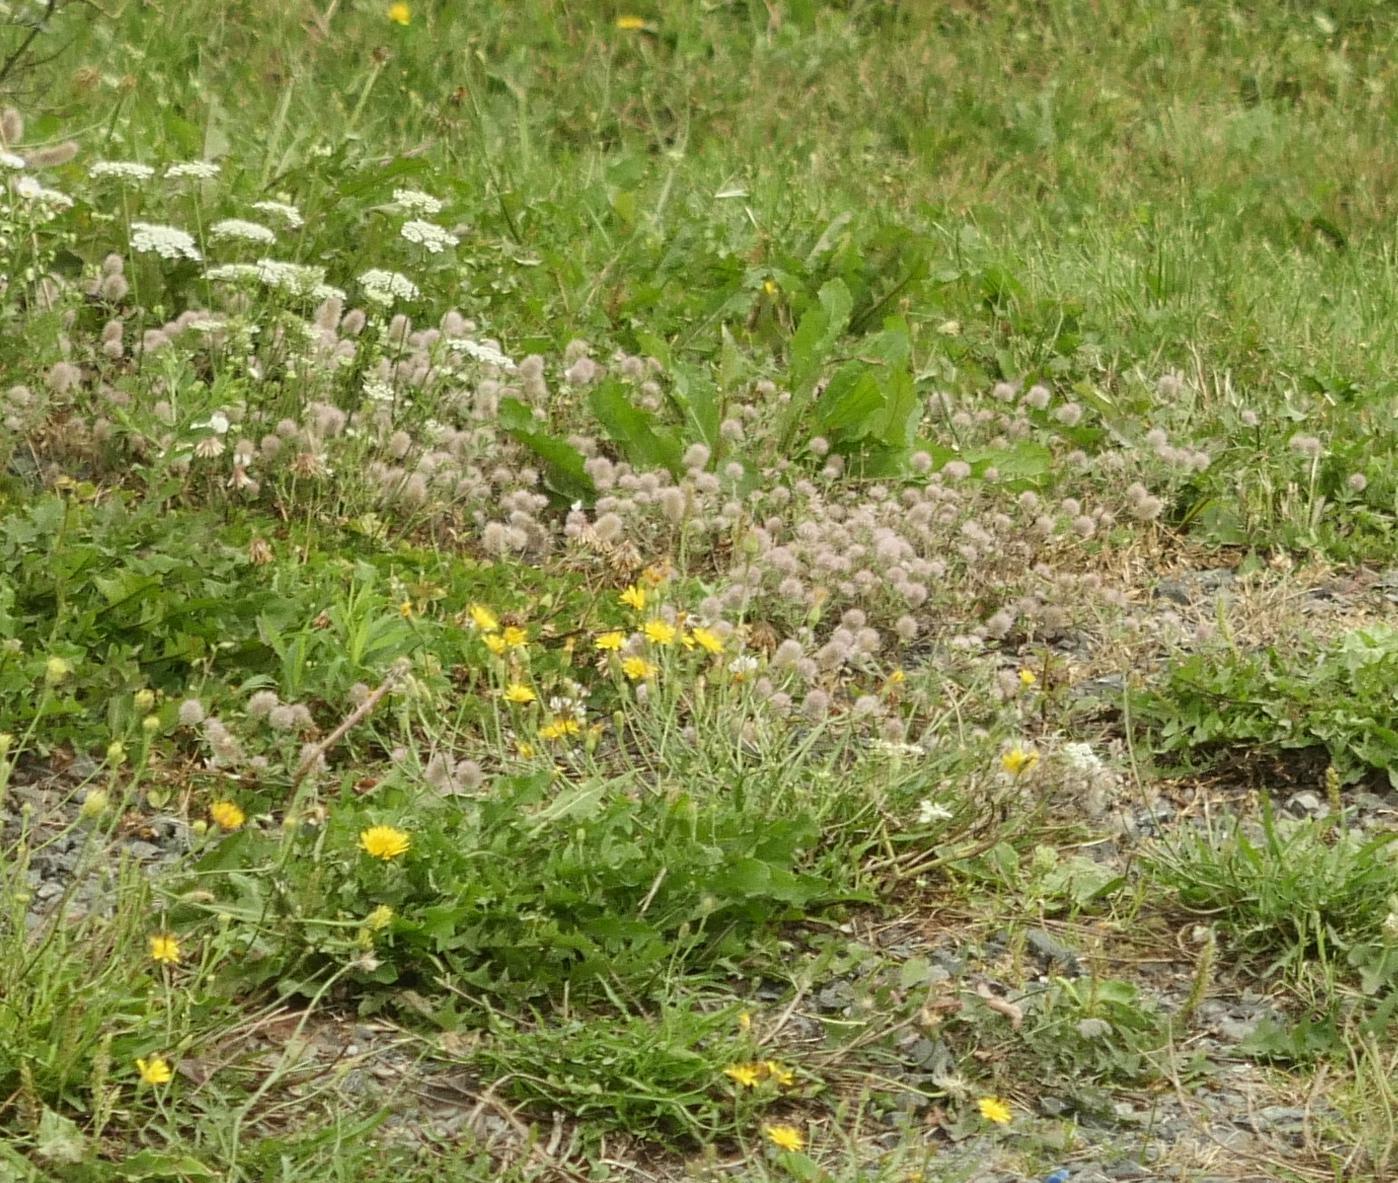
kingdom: Plantae
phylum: Tracheophyta
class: Magnoliopsida
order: Fabales
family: Fabaceae
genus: Trifolium
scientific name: Trifolium arvense
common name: Hare's-foot clover
